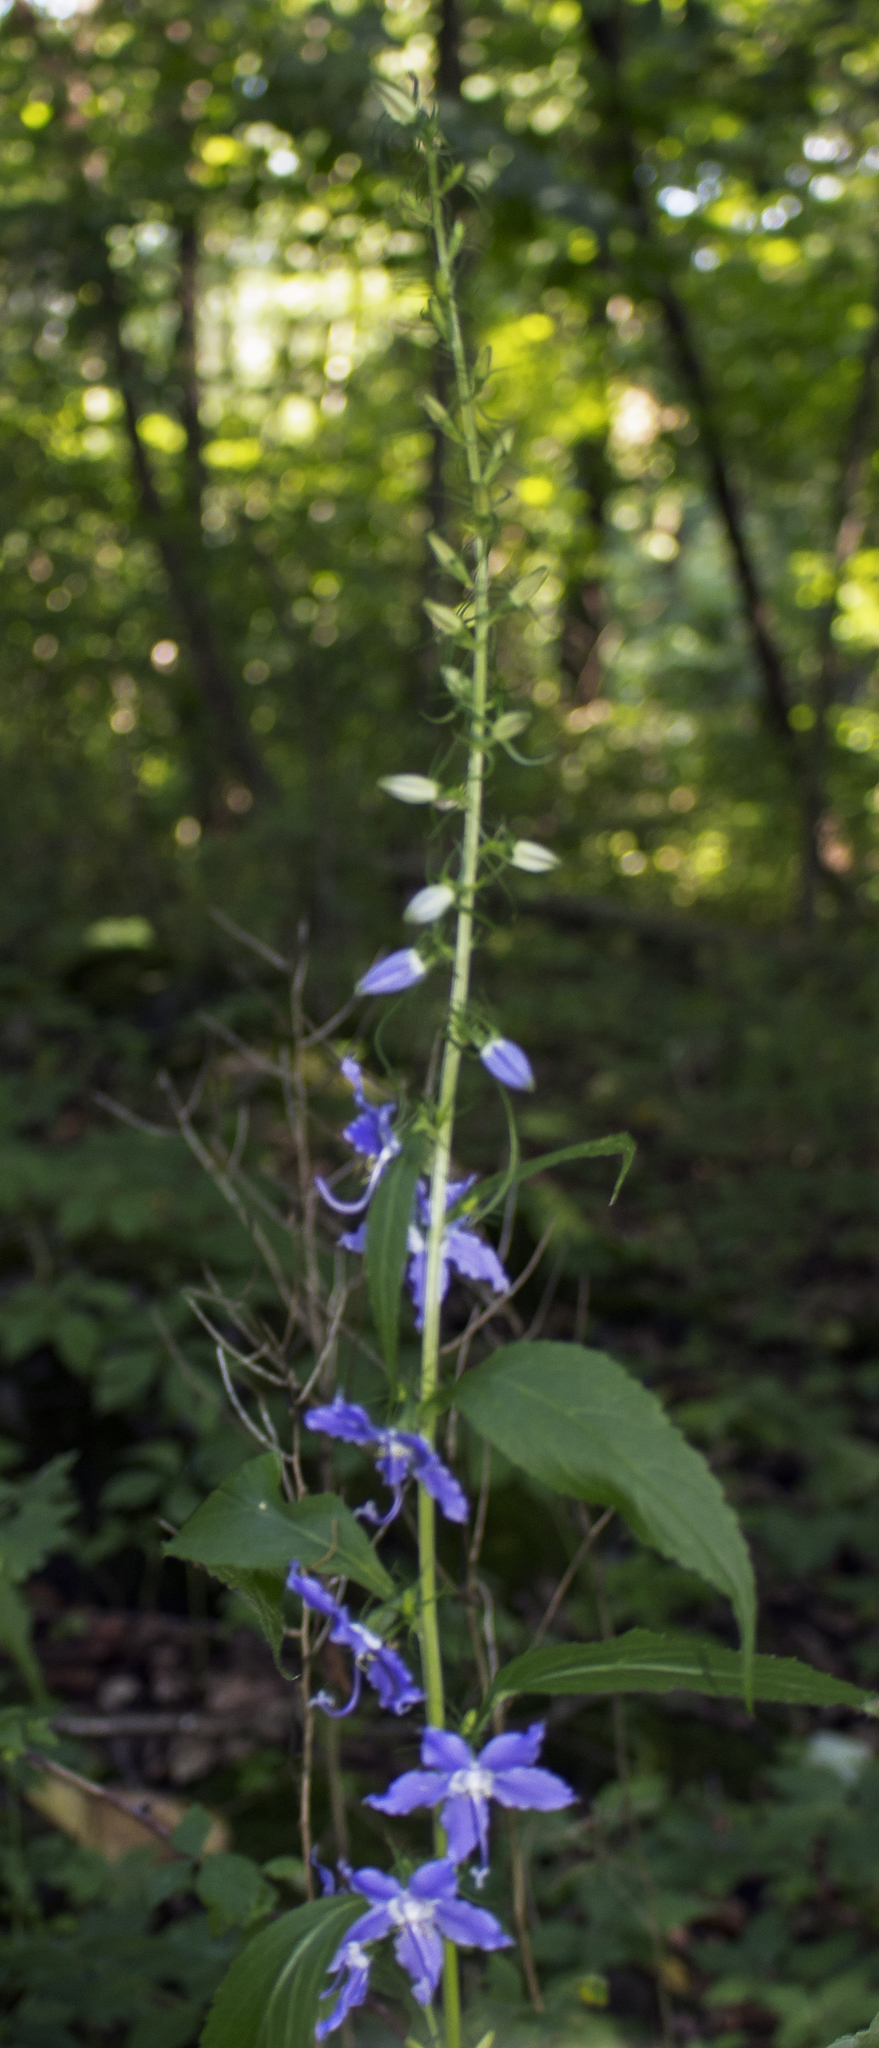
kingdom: Plantae
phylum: Tracheophyta
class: Magnoliopsida
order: Asterales
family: Campanulaceae
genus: Campanulastrum
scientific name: Campanulastrum americanum
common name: American bellflower
